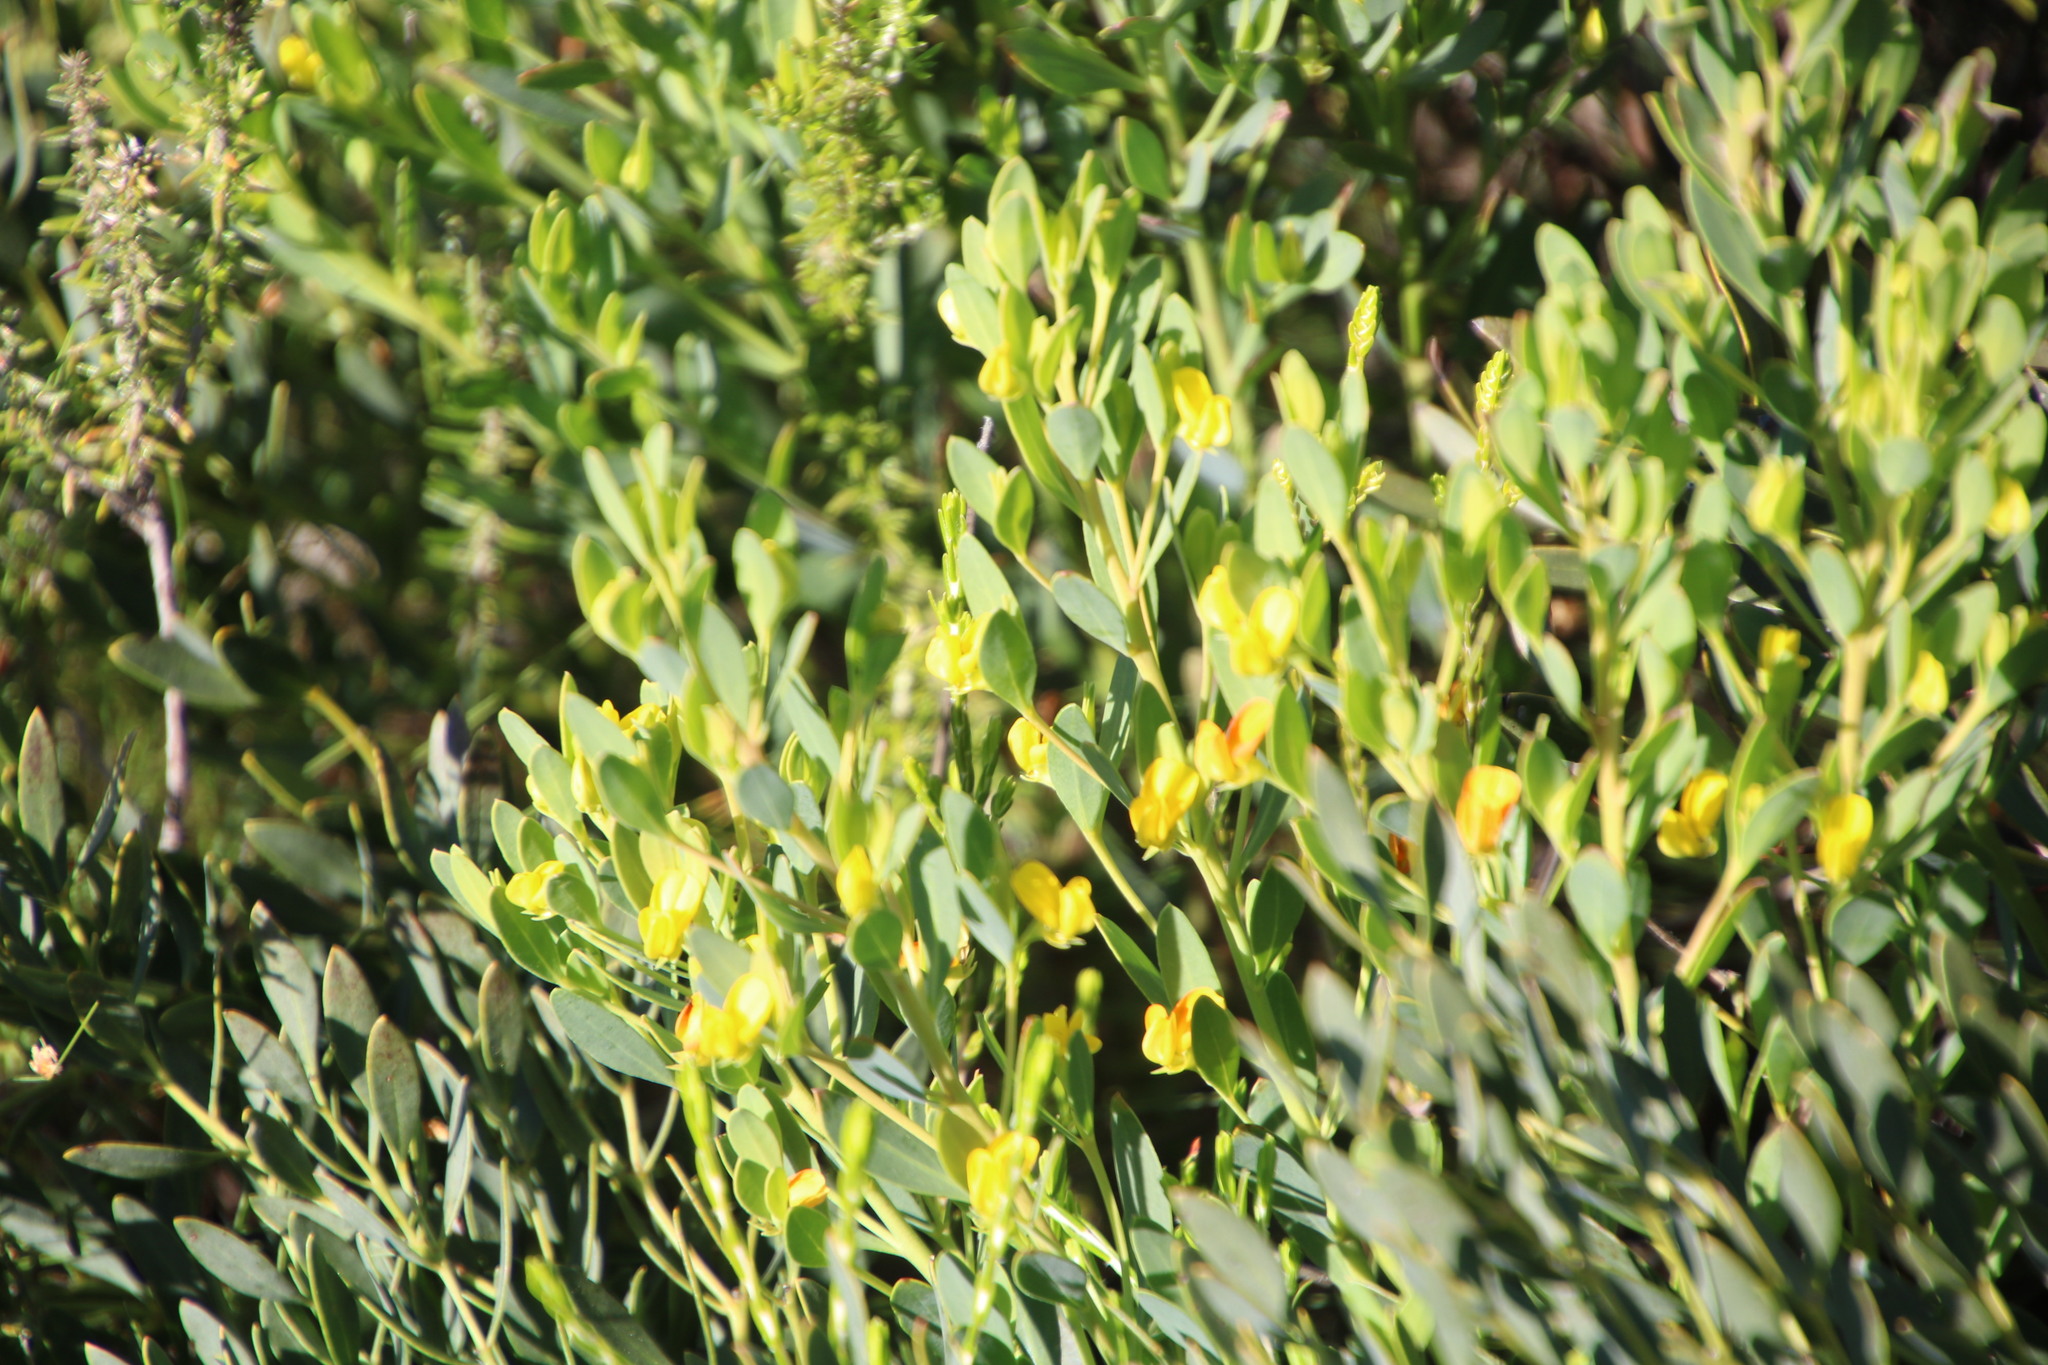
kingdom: Plantae
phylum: Tracheophyta
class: Magnoliopsida
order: Fabales
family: Fabaceae
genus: Rafnia
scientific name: Rafnia capensis
